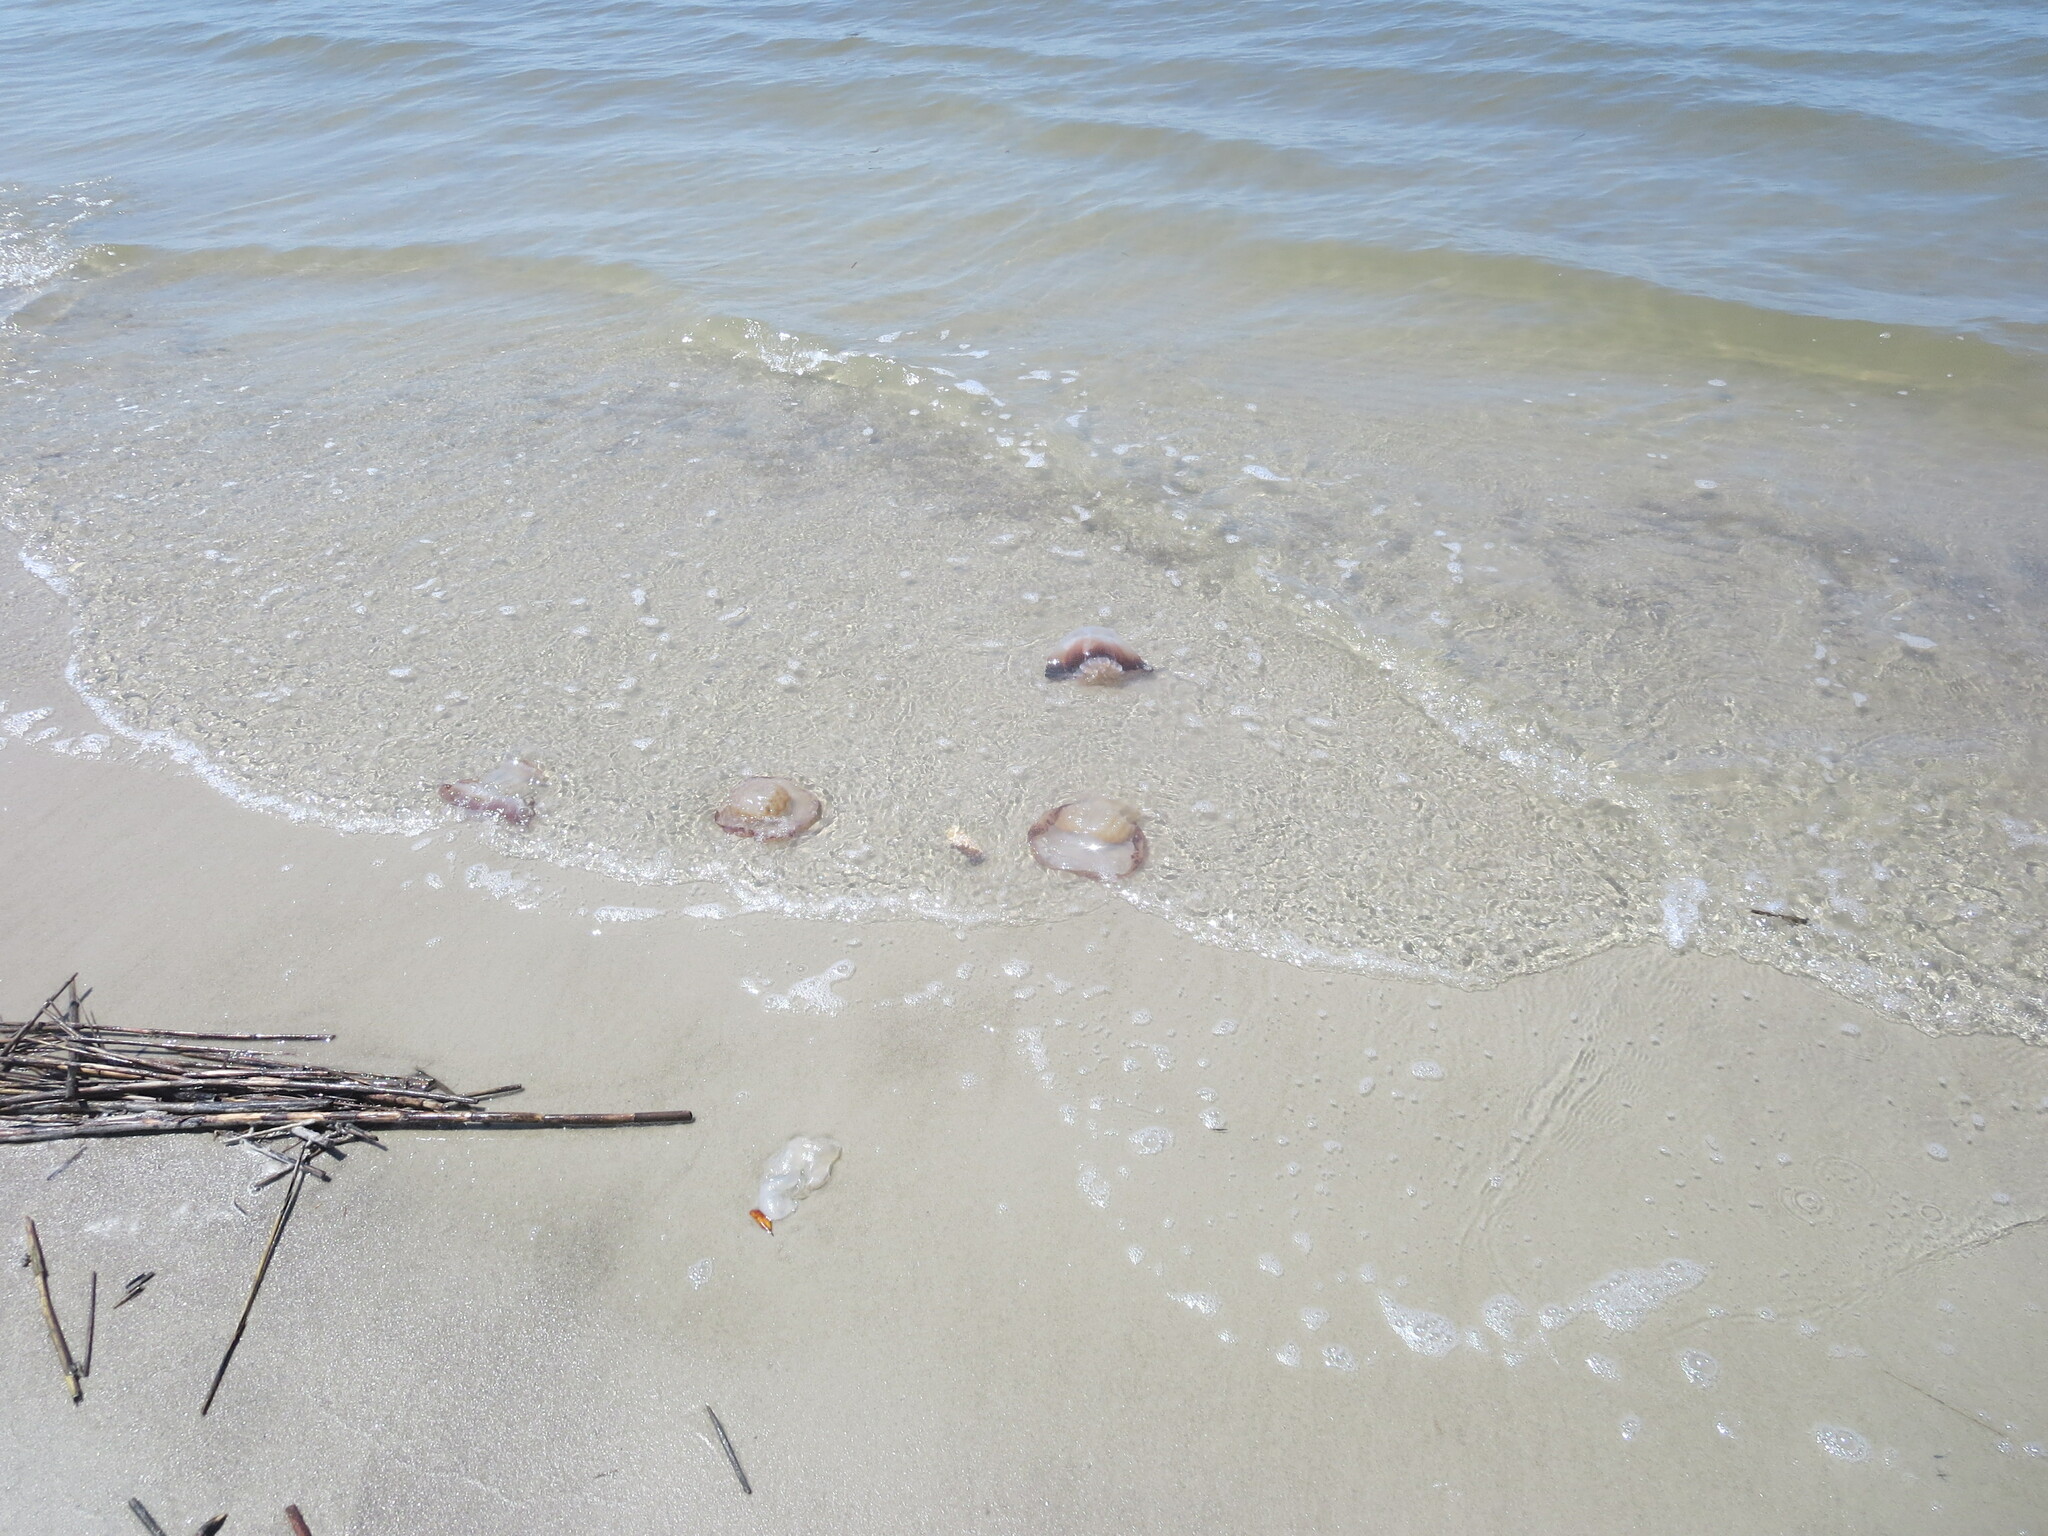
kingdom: Animalia
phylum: Cnidaria
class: Scyphozoa
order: Rhizostomeae
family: Stomolophidae
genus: Stomolophus
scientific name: Stomolophus meleagris
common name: Cabbagehead
